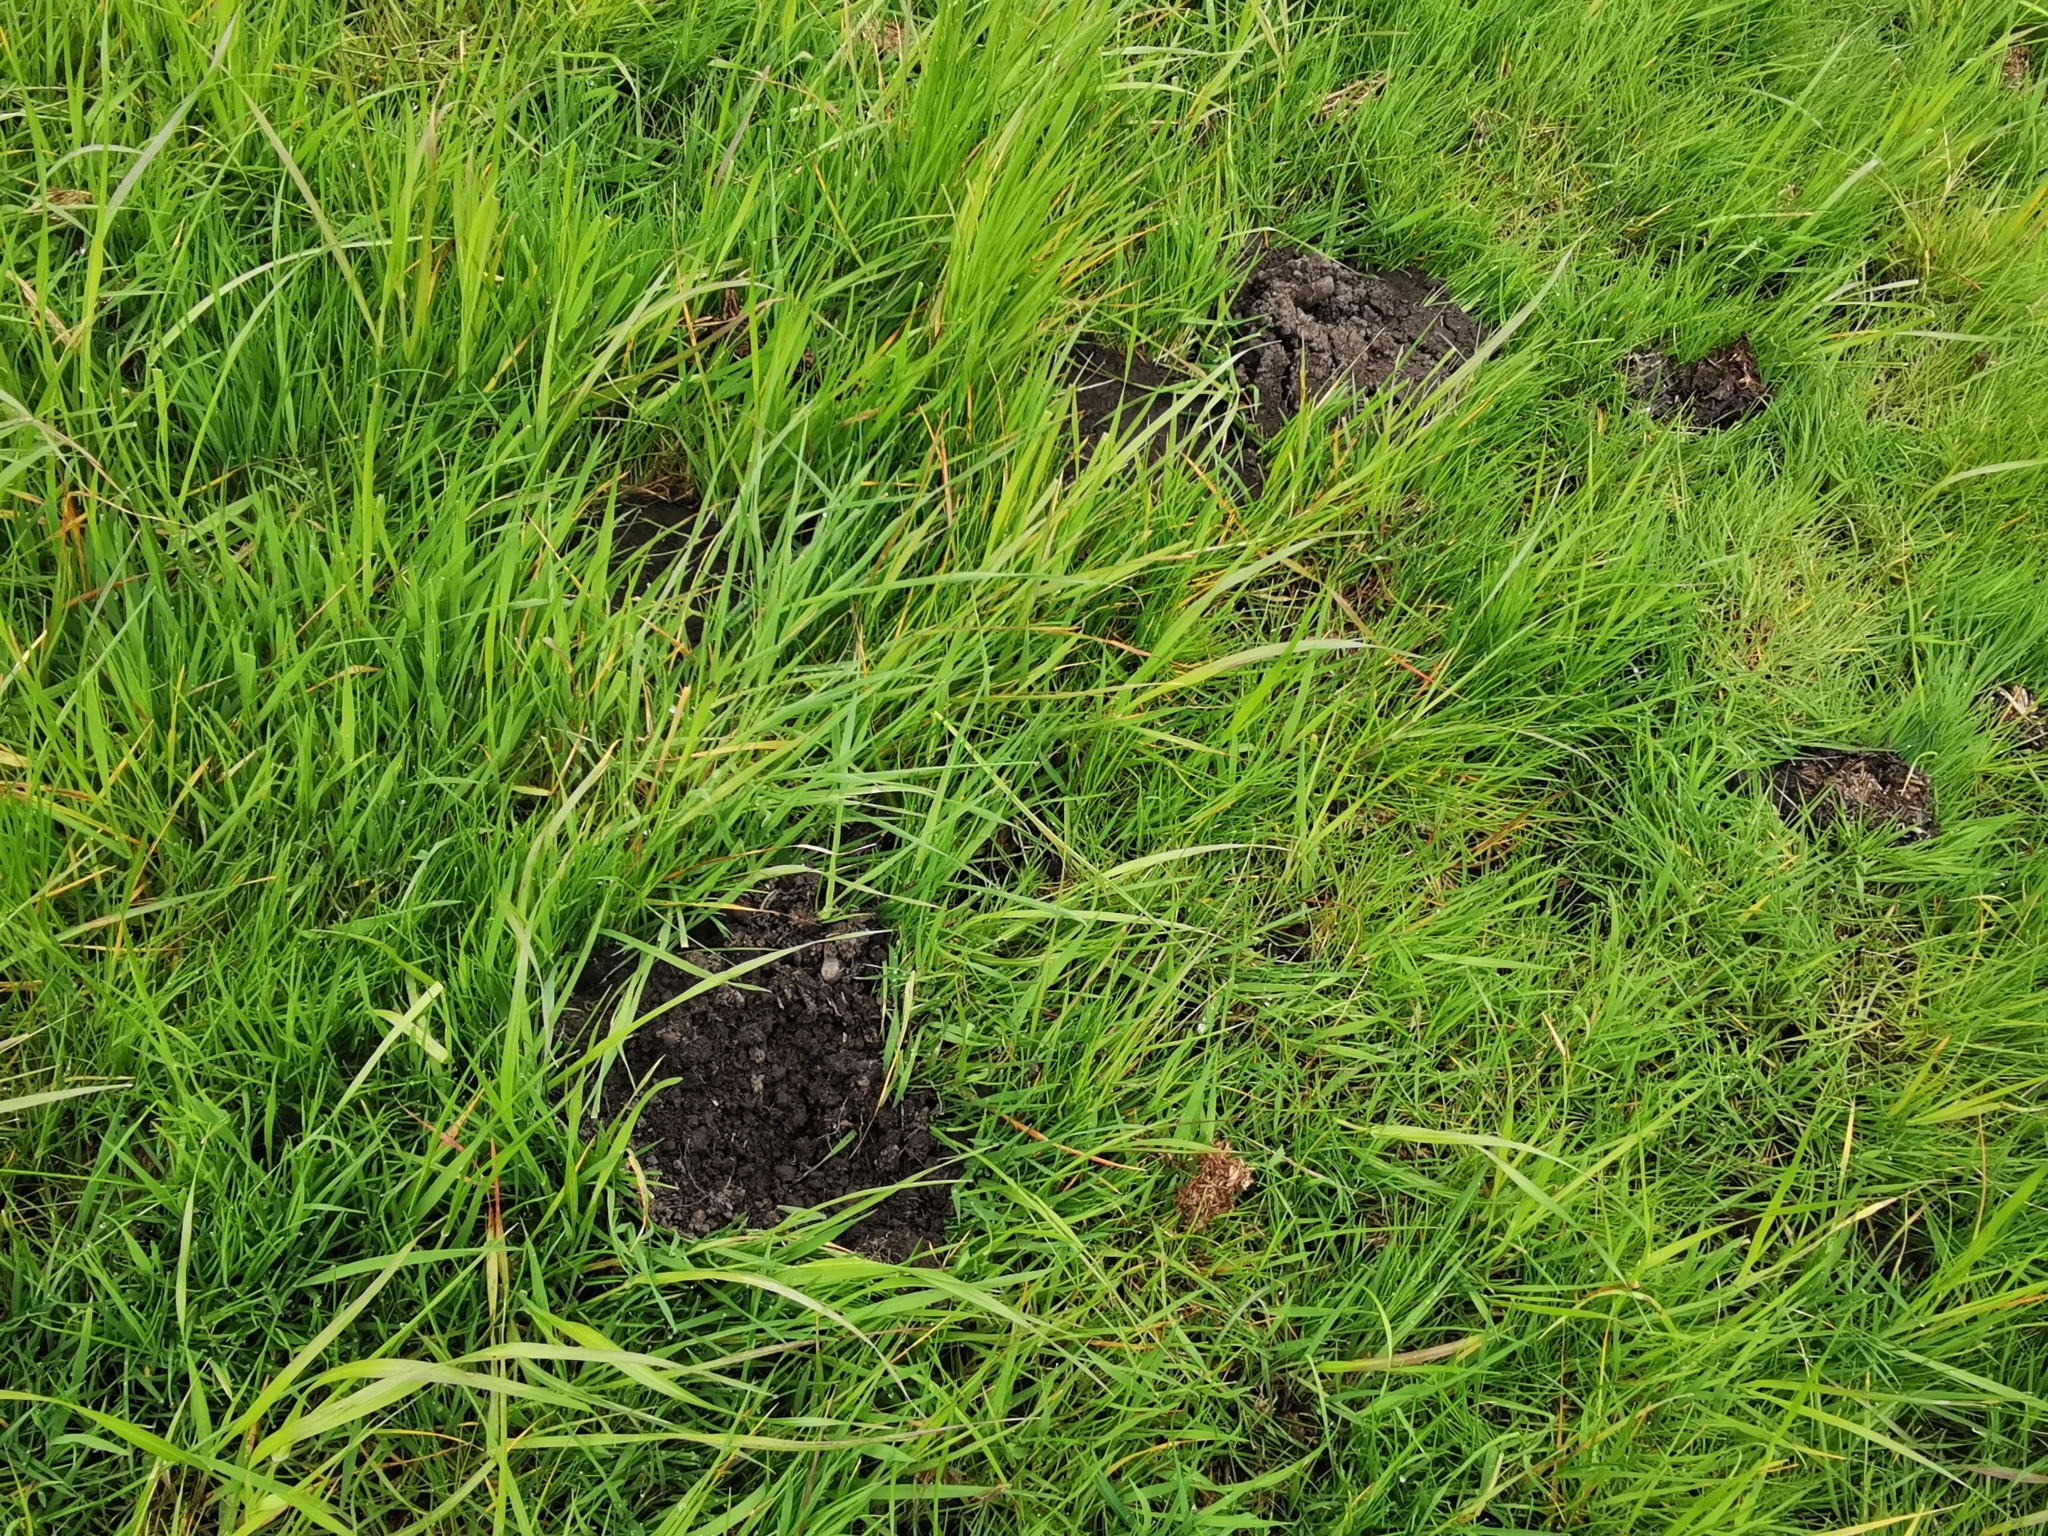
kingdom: Animalia
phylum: Chordata
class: Mammalia
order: Soricomorpha
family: Talpidae
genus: Talpa
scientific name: Talpa europaea
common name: European mole
